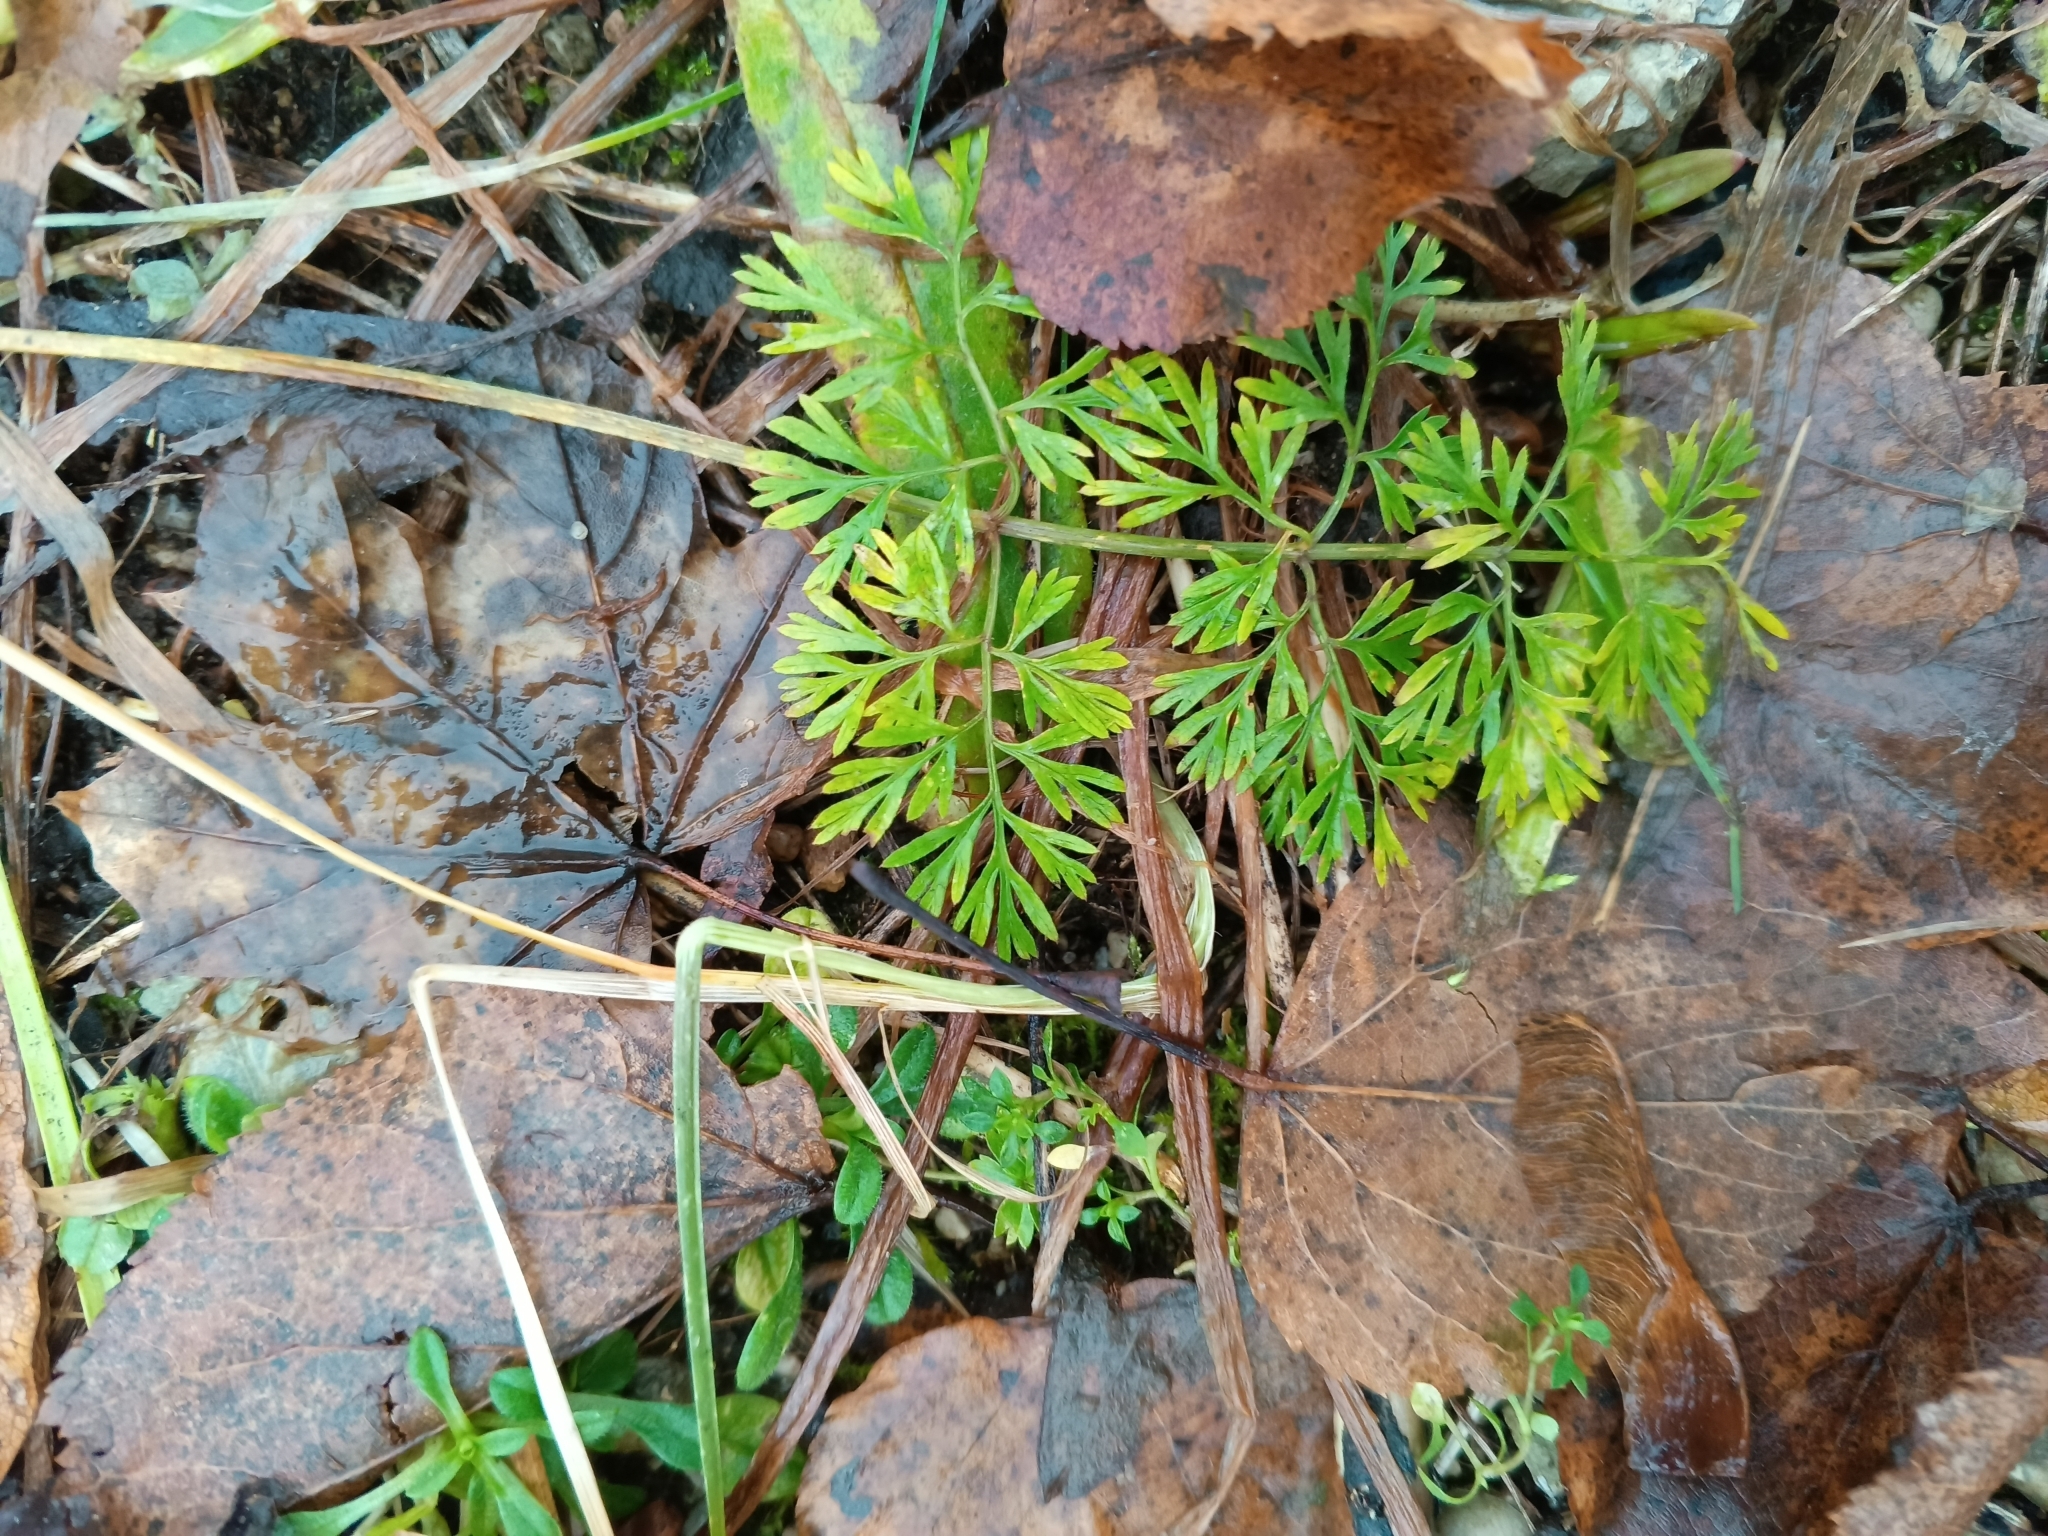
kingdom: Plantae
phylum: Tracheophyta
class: Magnoliopsida
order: Apiales
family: Apiaceae
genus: Daucus
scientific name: Daucus carota
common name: Wild carrot
